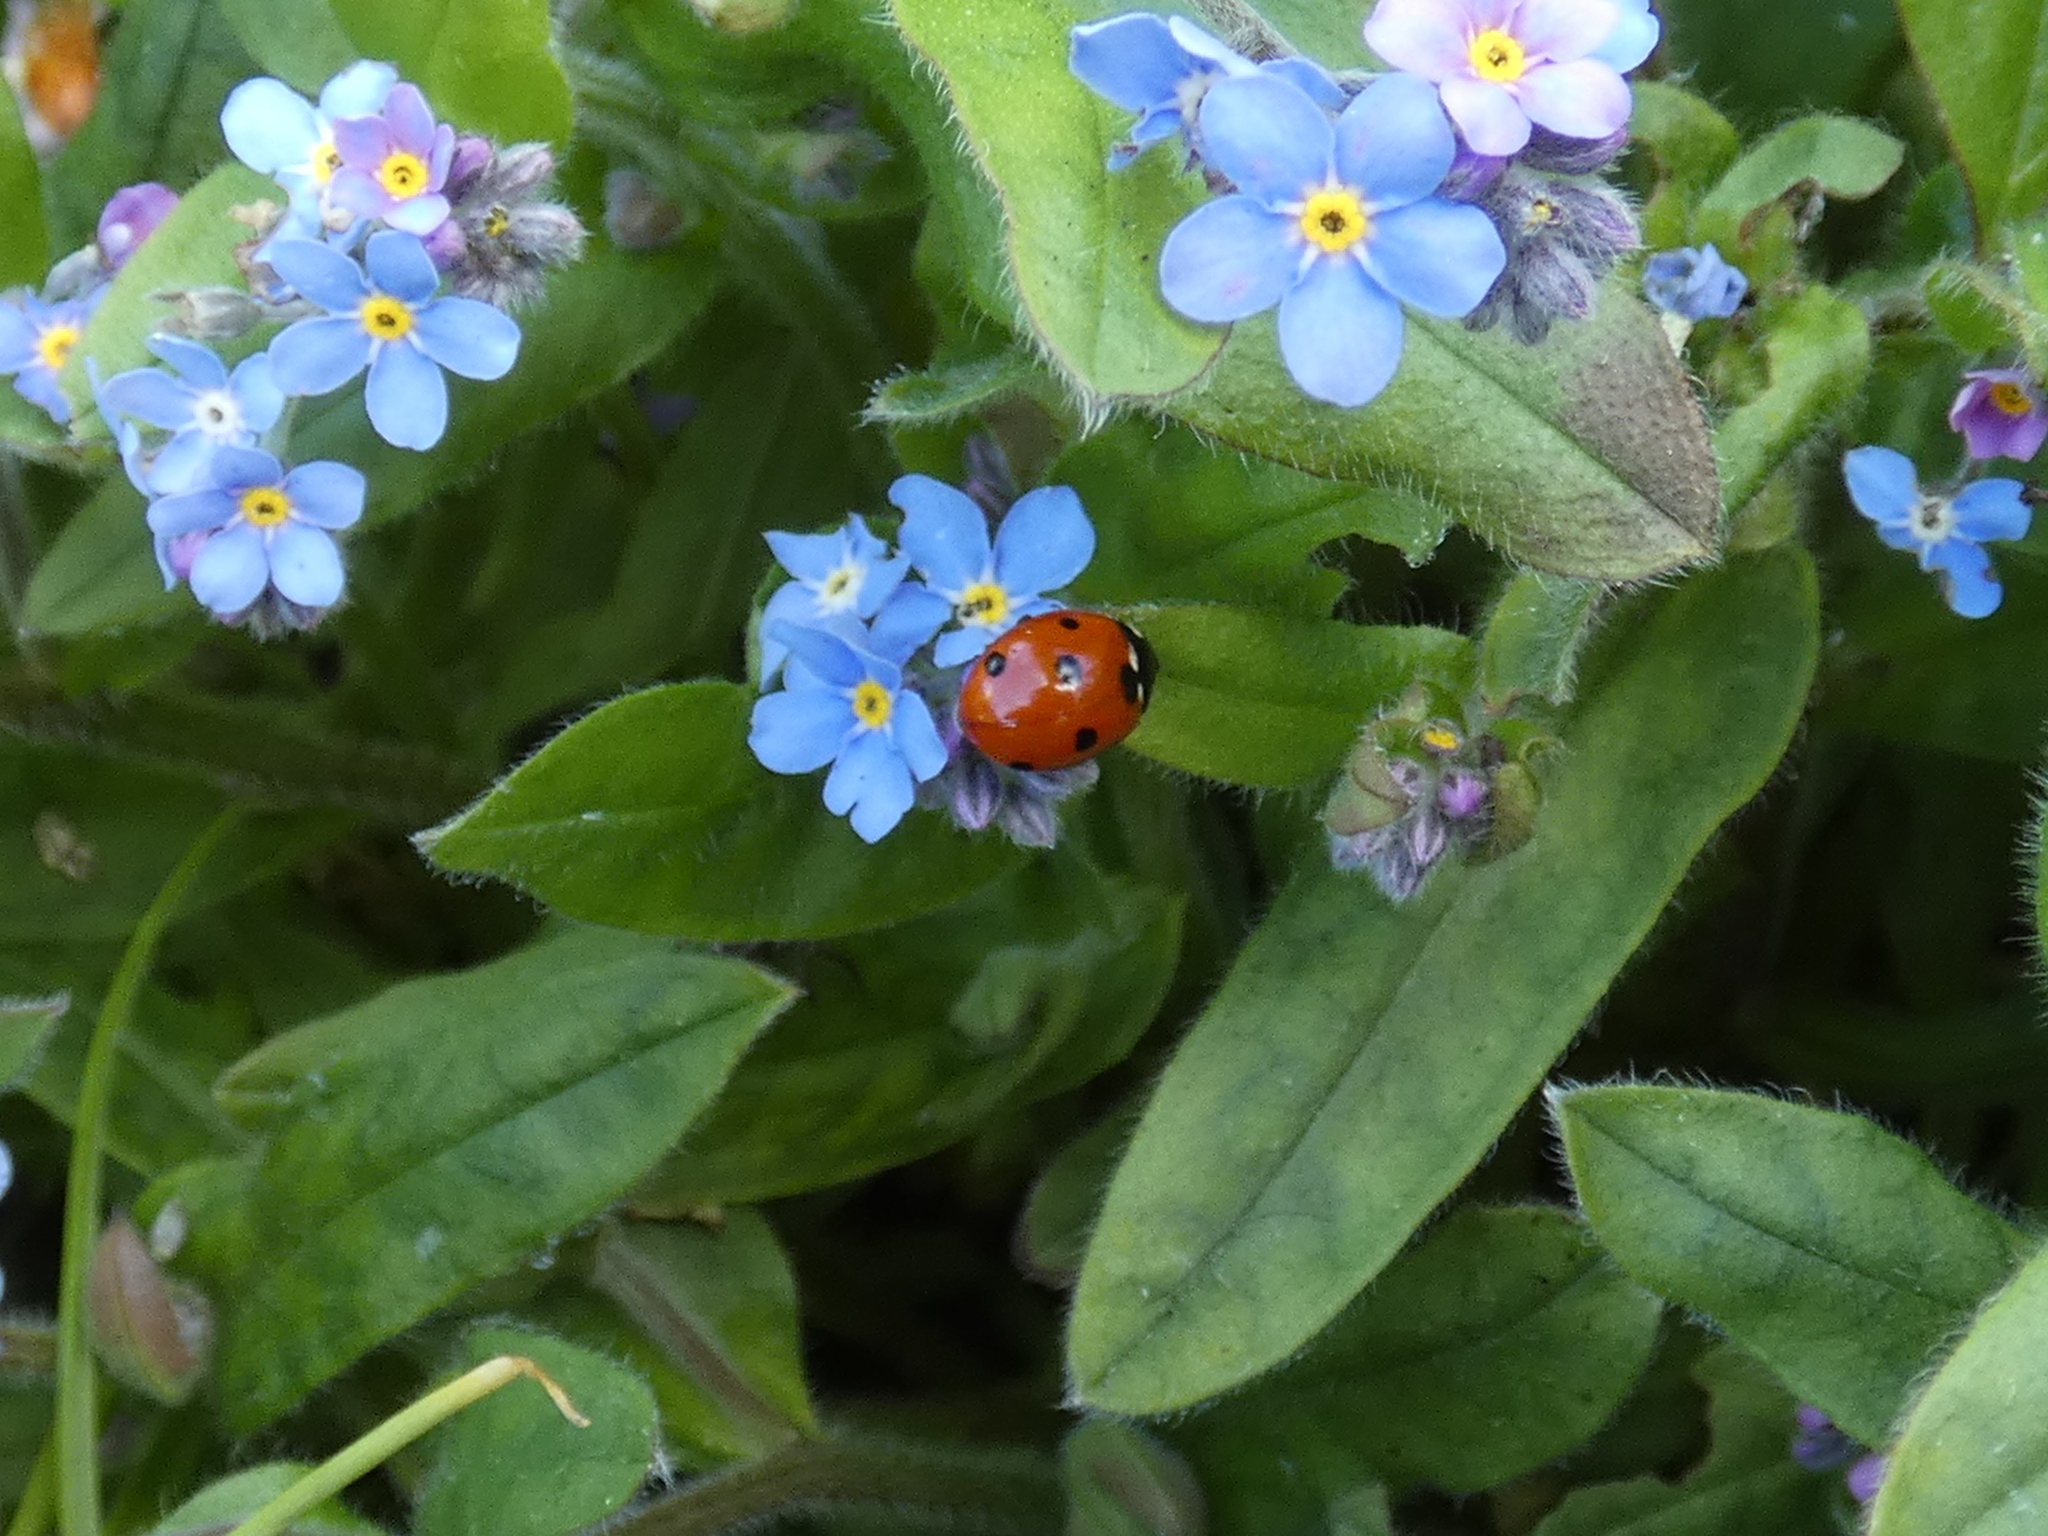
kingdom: Animalia
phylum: Arthropoda
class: Insecta
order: Coleoptera
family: Coccinellidae
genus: Coccinella
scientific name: Coccinella septempunctata
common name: Sevenspotted lady beetle
